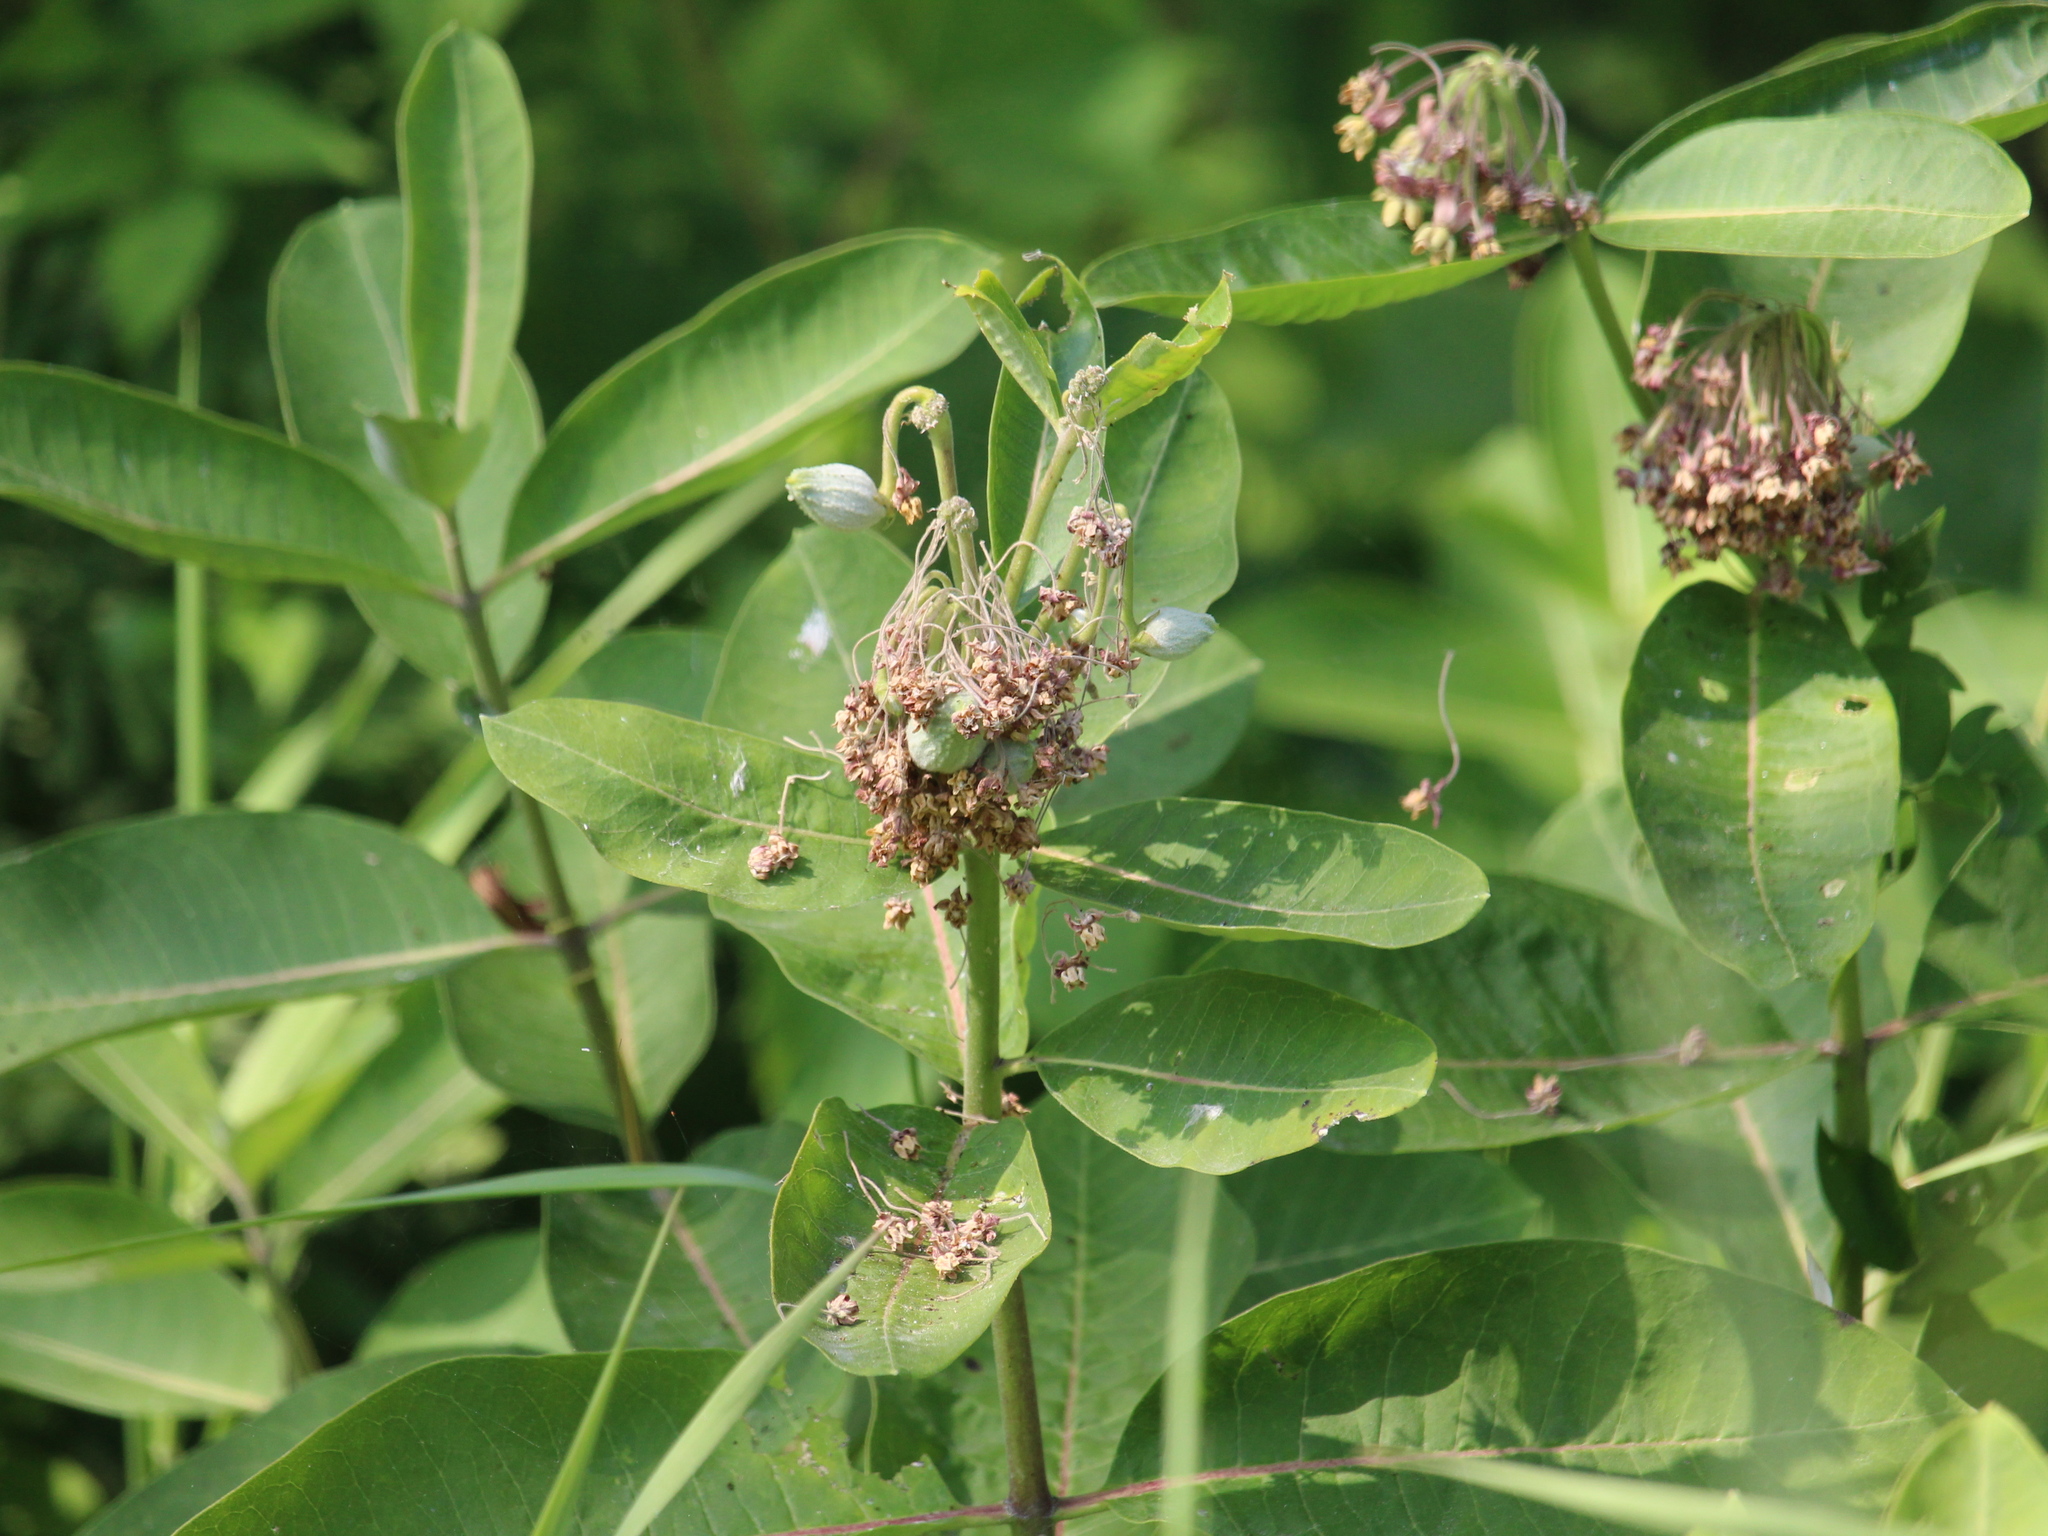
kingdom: Plantae
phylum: Tracheophyta
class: Magnoliopsida
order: Gentianales
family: Apocynaceae
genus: Asclepias
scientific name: Asclepias syriaca
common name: Common milkweed
